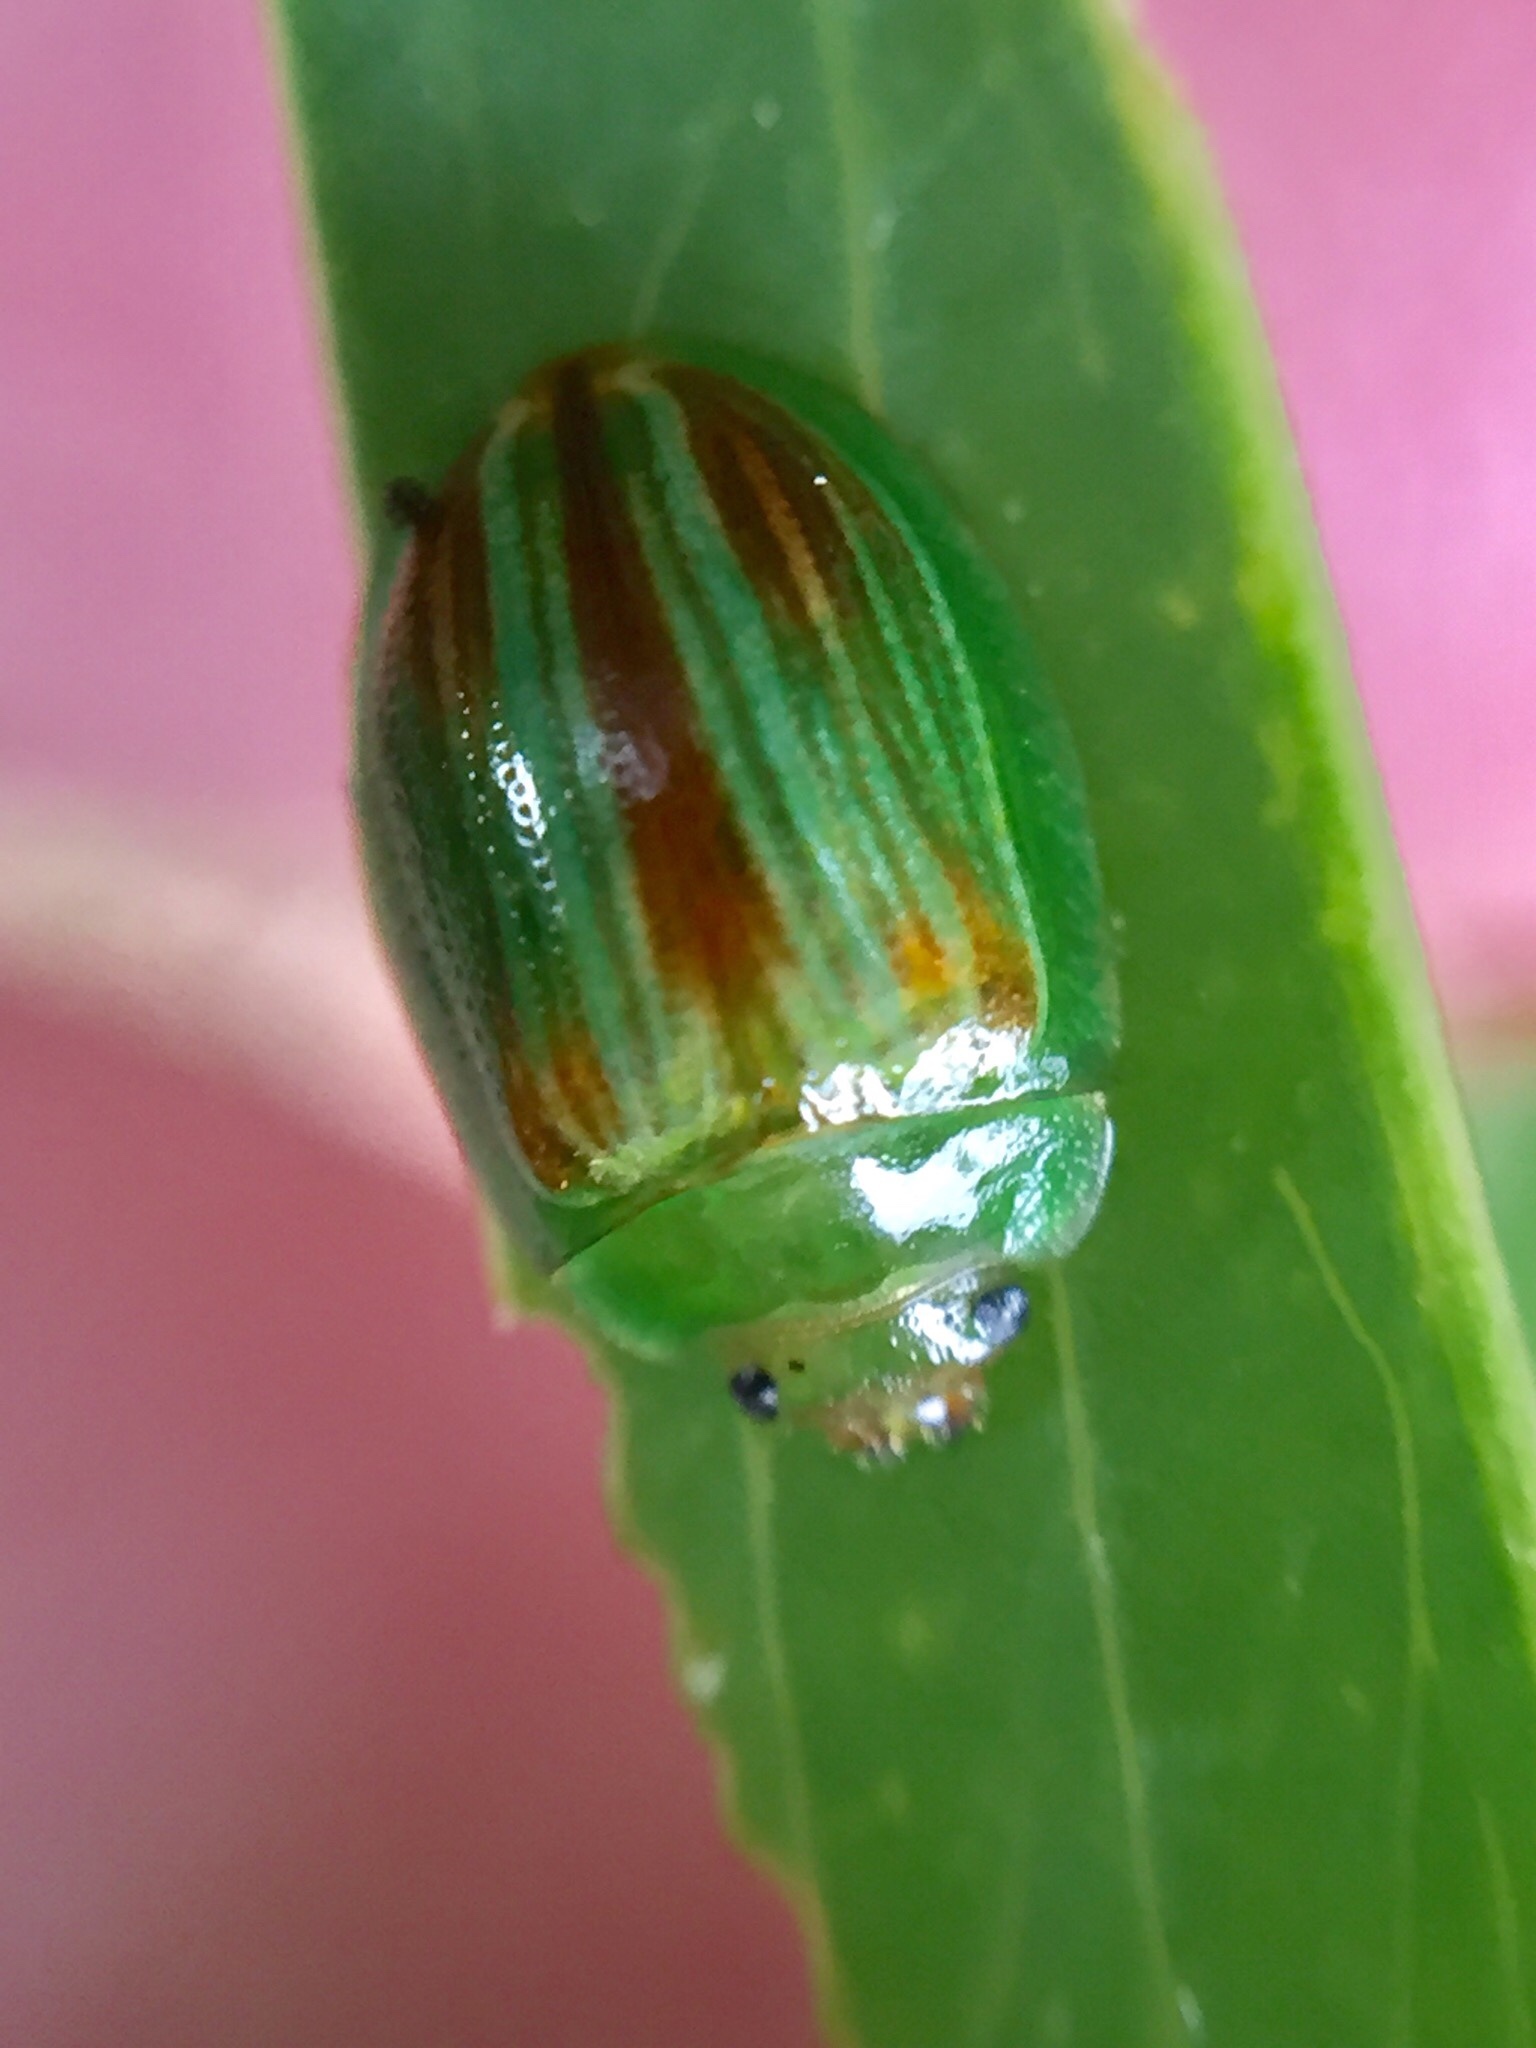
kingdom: Animalia
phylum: Arthropoda
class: Insecta
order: Coleoptera
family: Chrysomelidae
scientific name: Chrysomelidae
